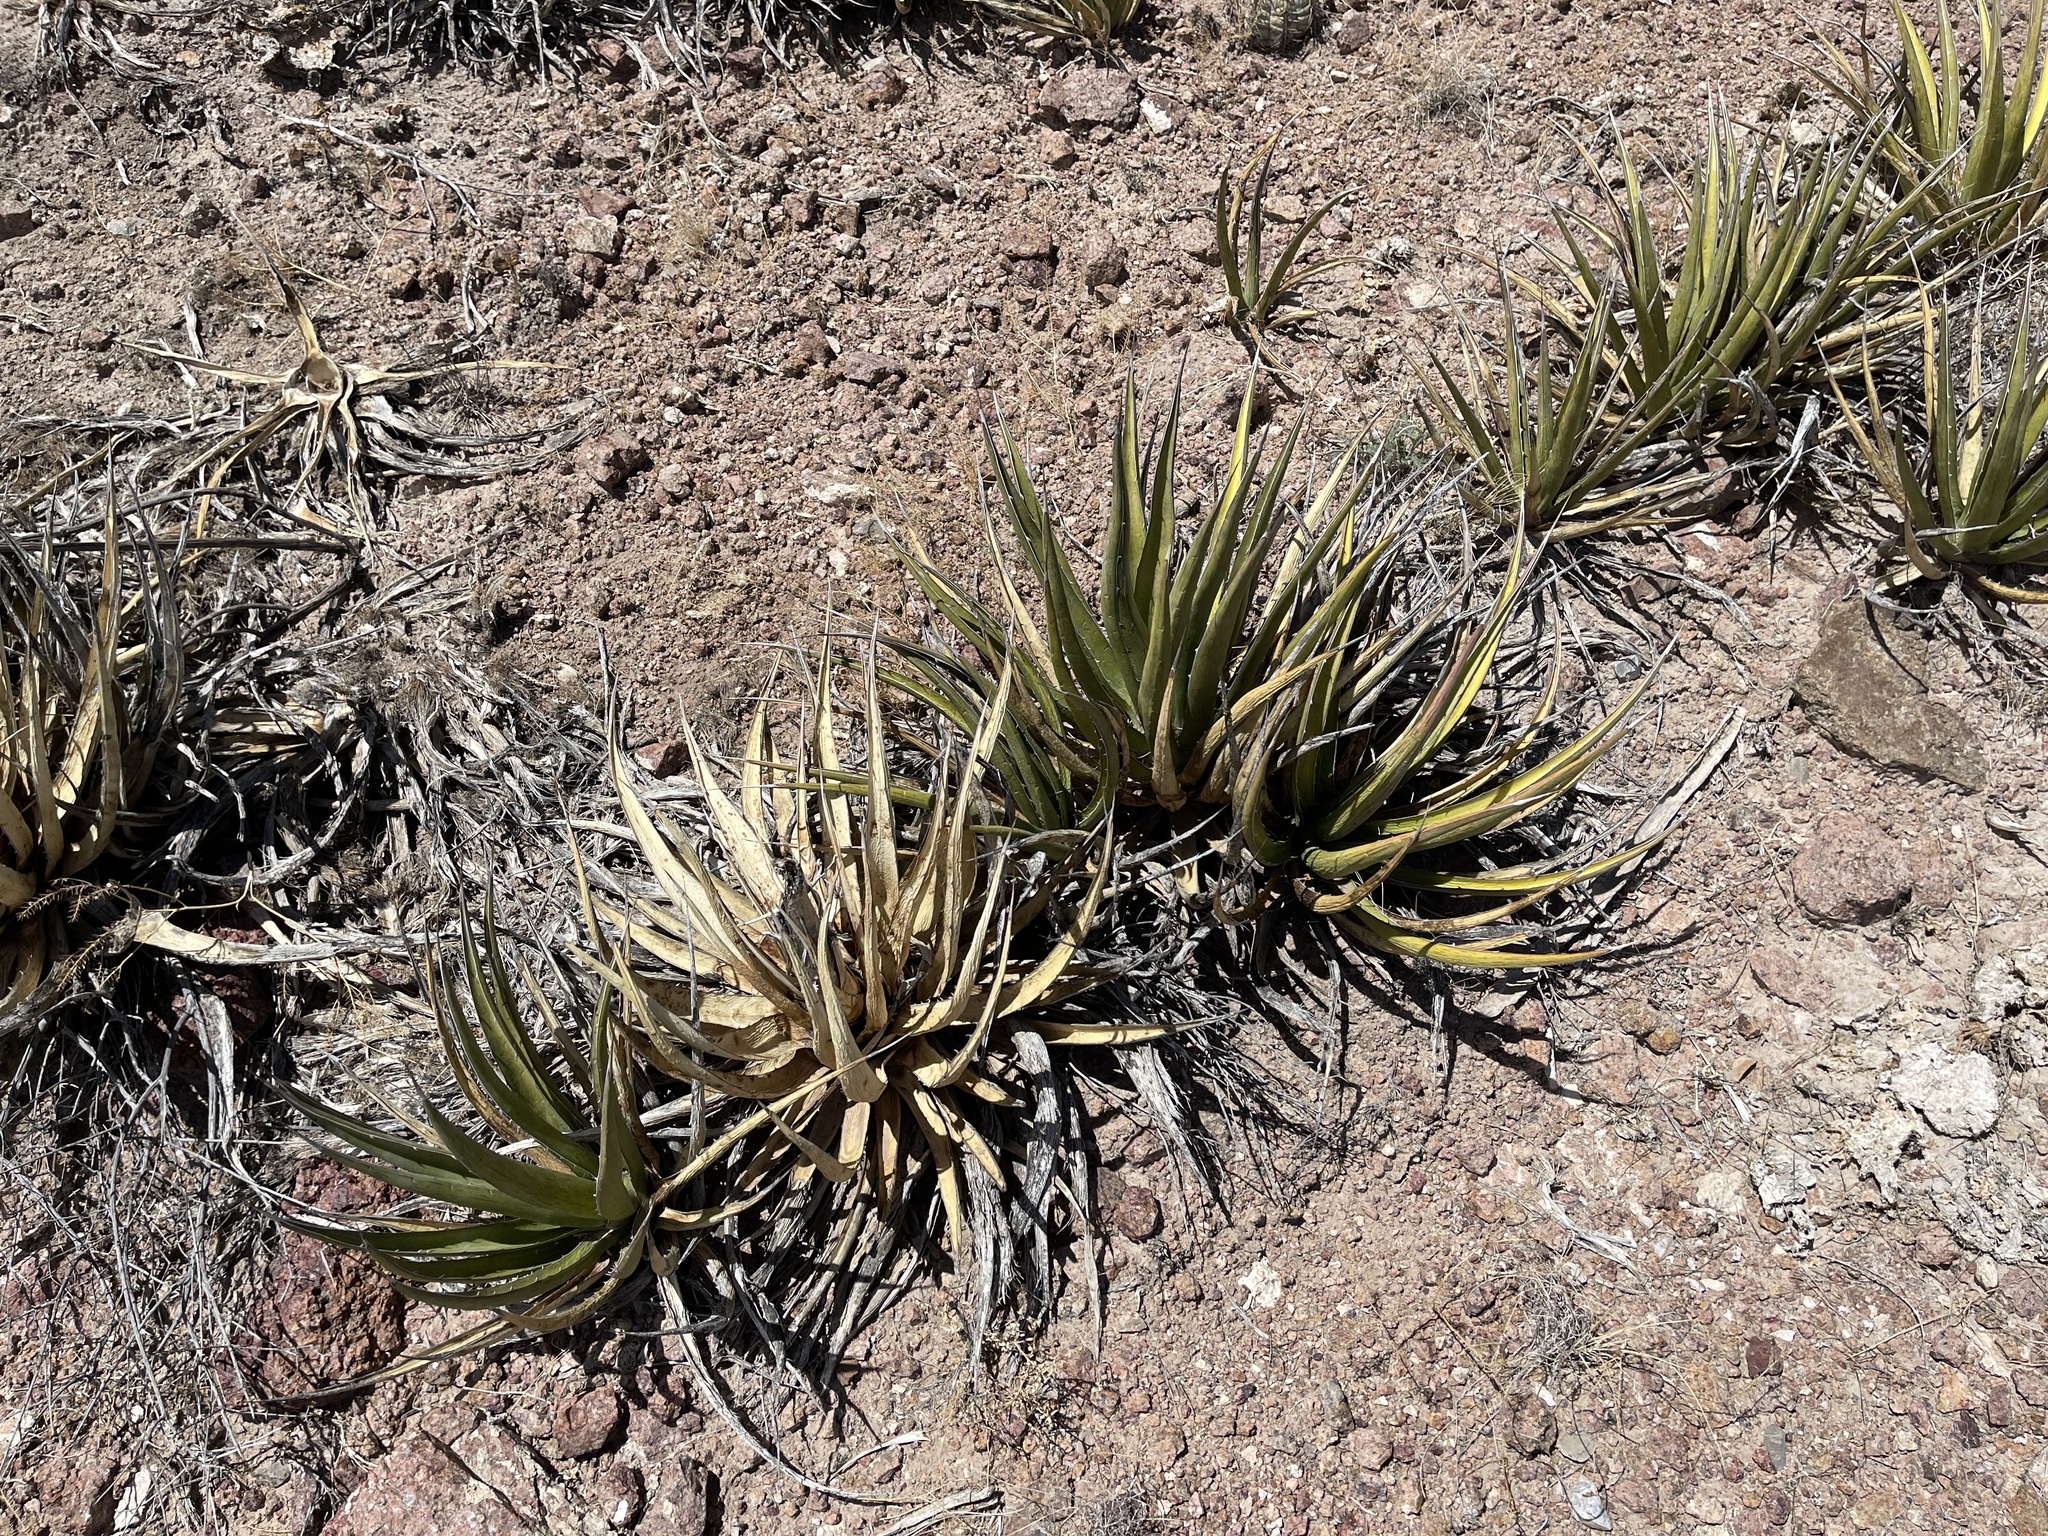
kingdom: Plantae
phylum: Tracheophyta
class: Liliopsida
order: Asparagales
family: Asparagaceae
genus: Agave
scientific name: Agave lechuguilla
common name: Lecheguilla agave
